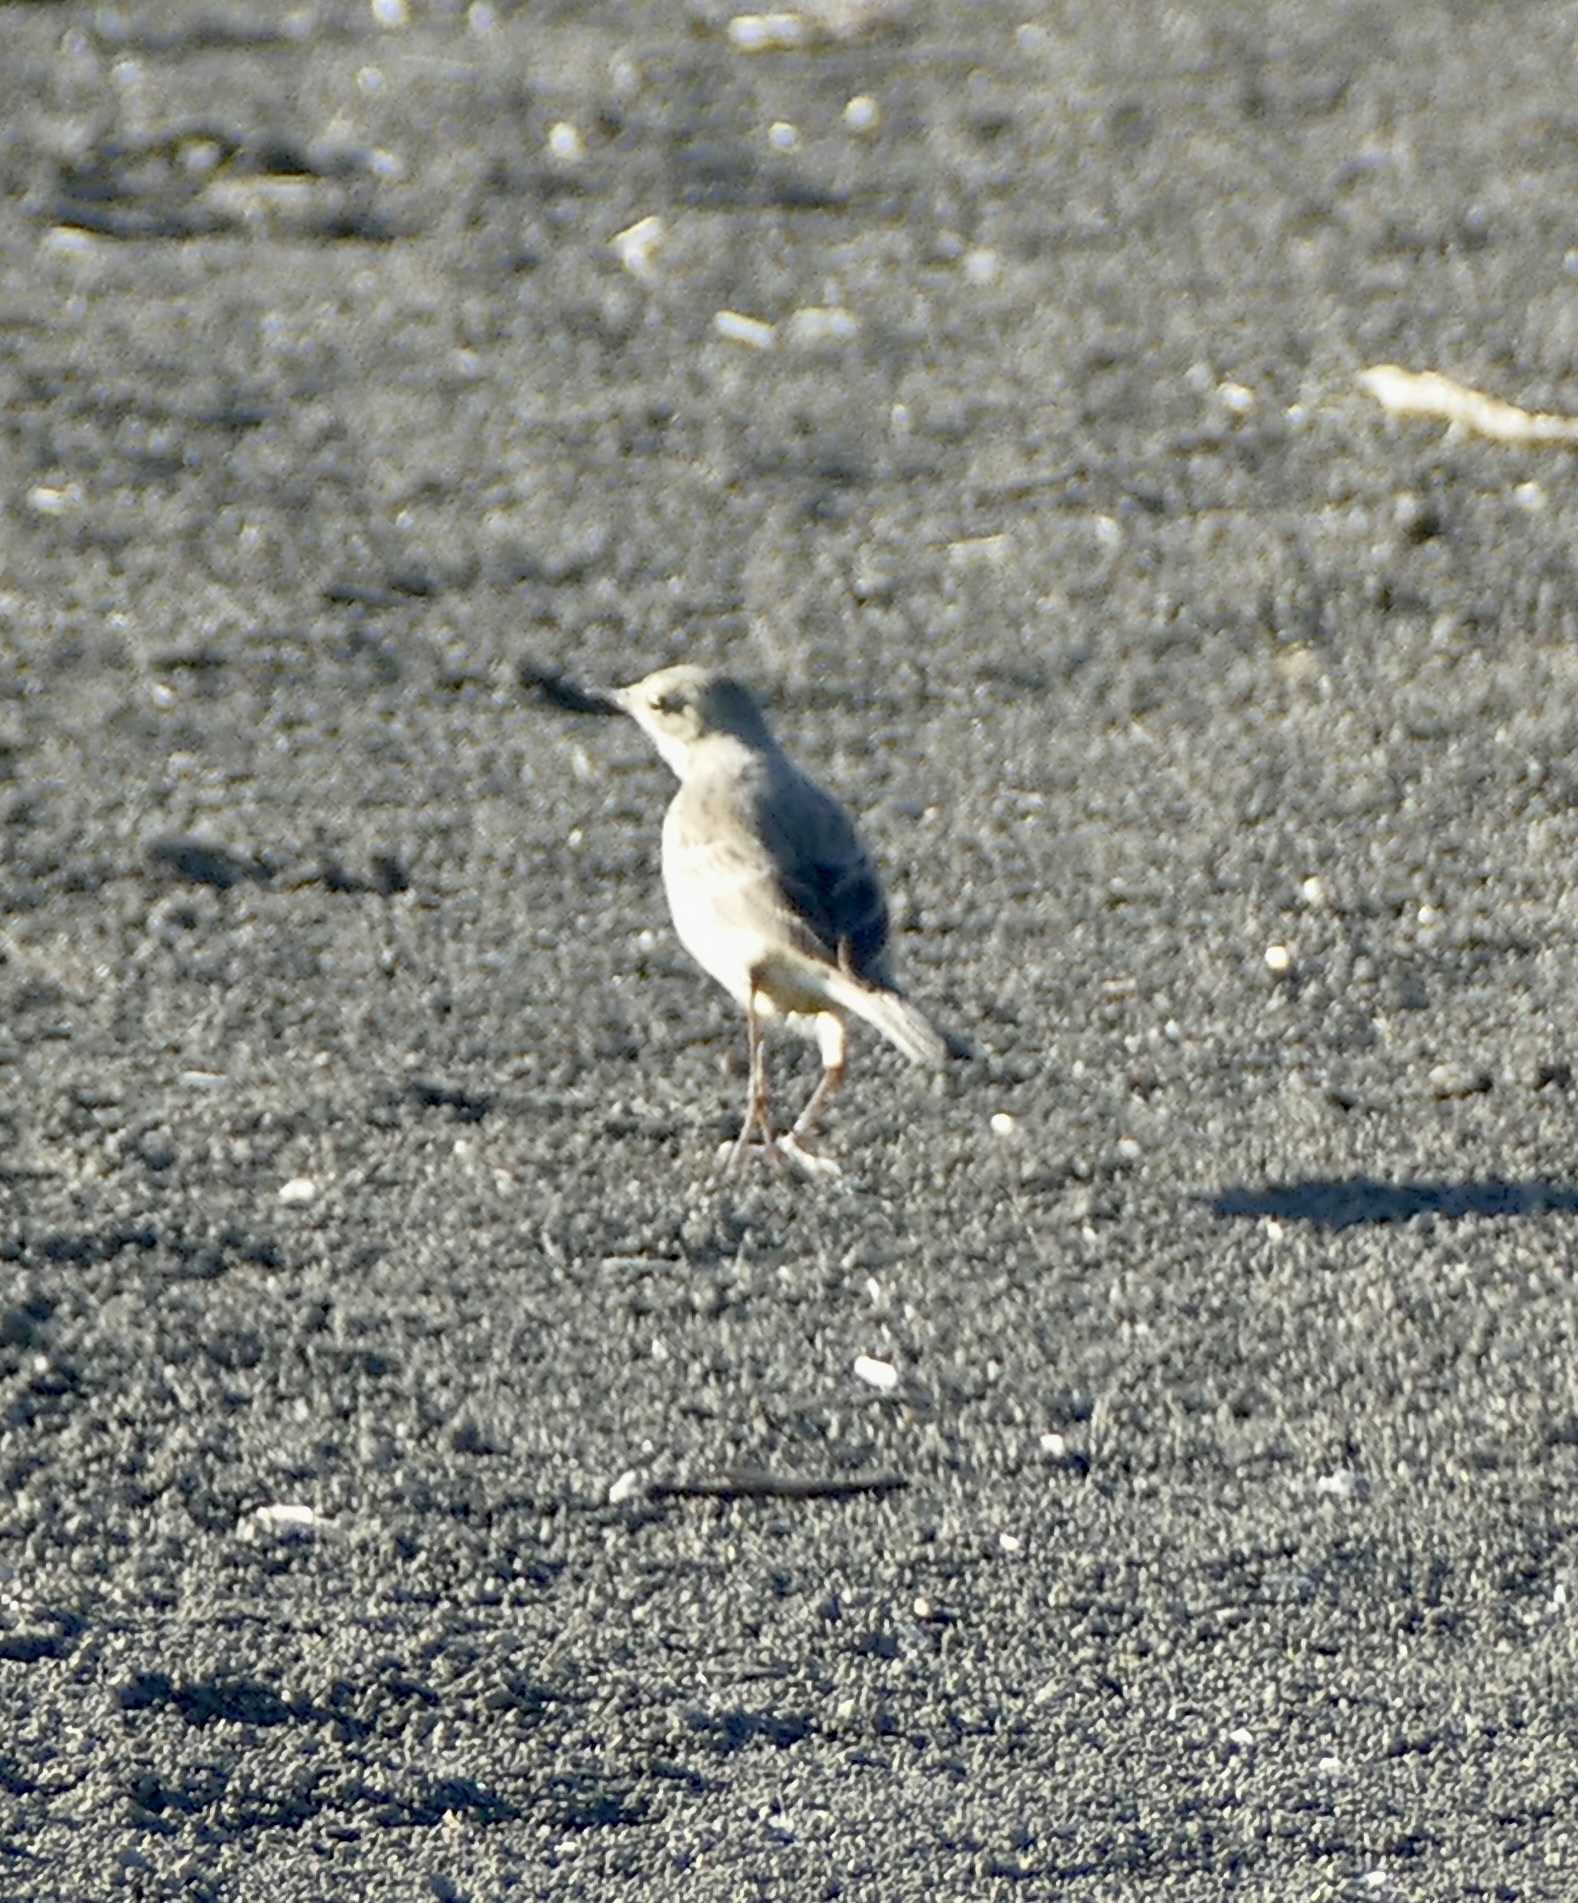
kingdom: Animalia
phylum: Chordata
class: Aves
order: Passeriformes
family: Motacillidae
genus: Anthus
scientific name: Anthus rubescens
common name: Buff-bellied pipit
